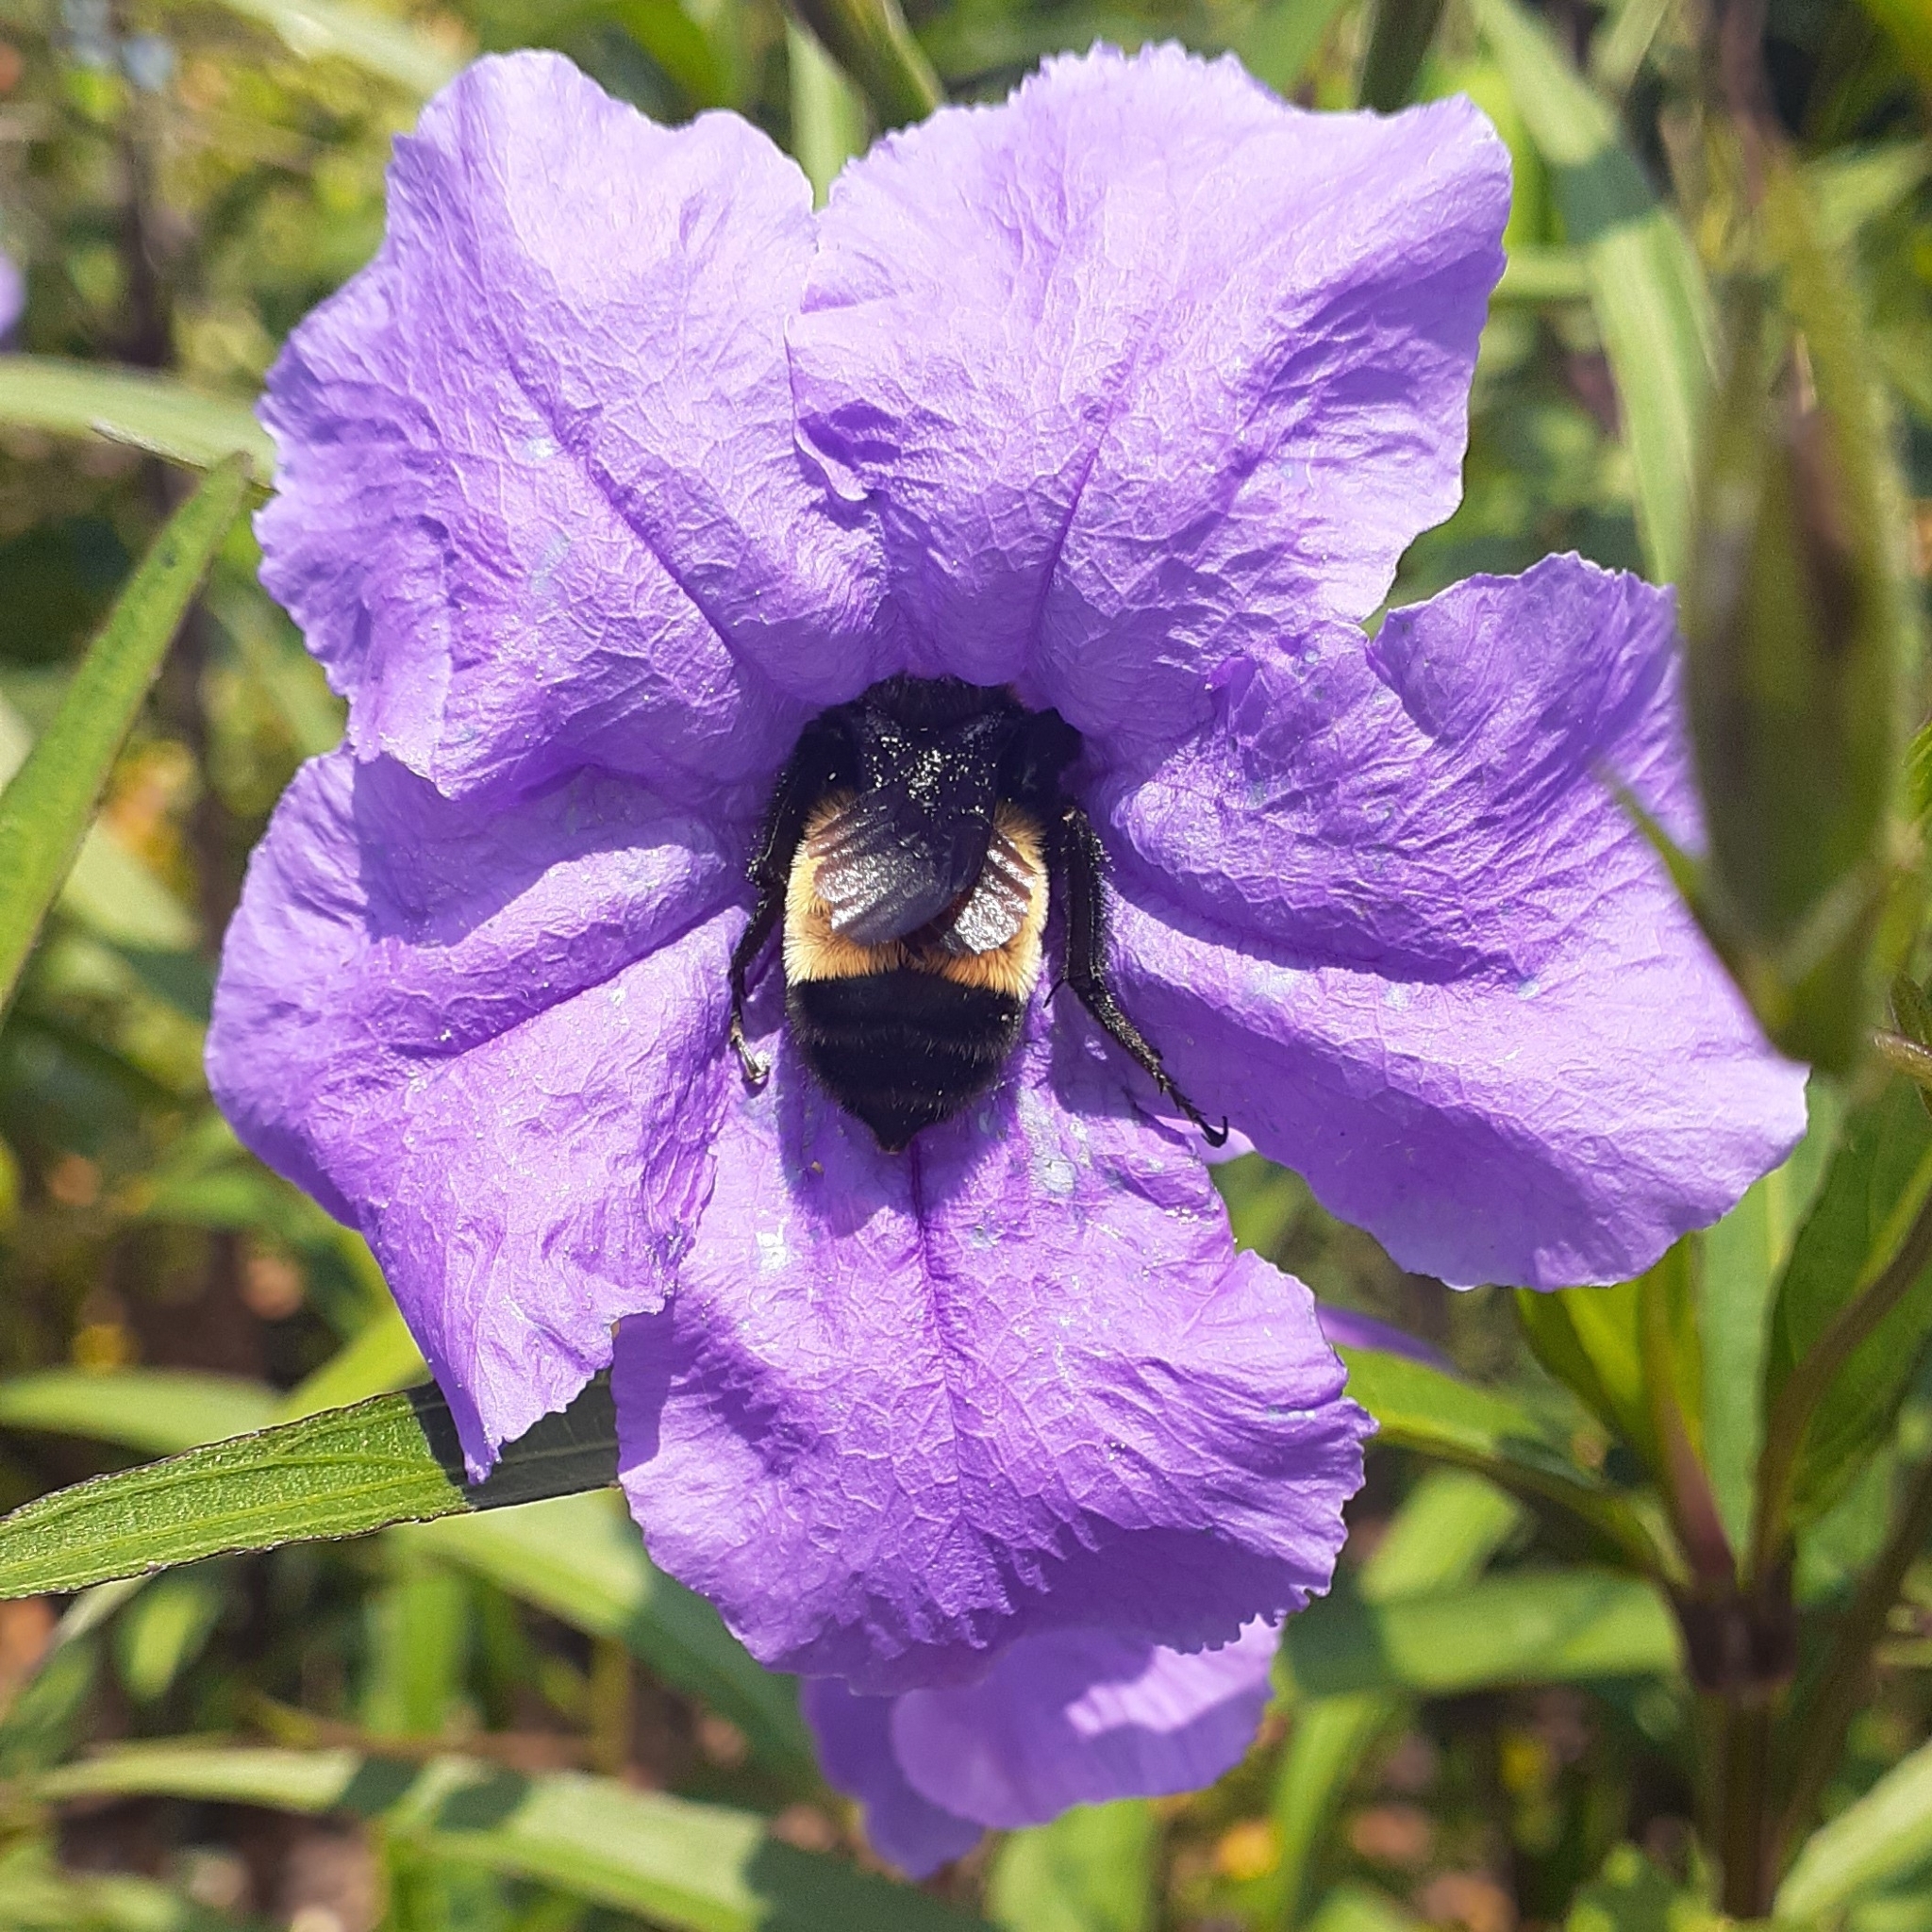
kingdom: Animalia
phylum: Arthropoda
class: Insecta
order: Hymenoptera
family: Apidae
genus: Bombus
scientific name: Bombus pensylvanicus
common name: Bumble bee
